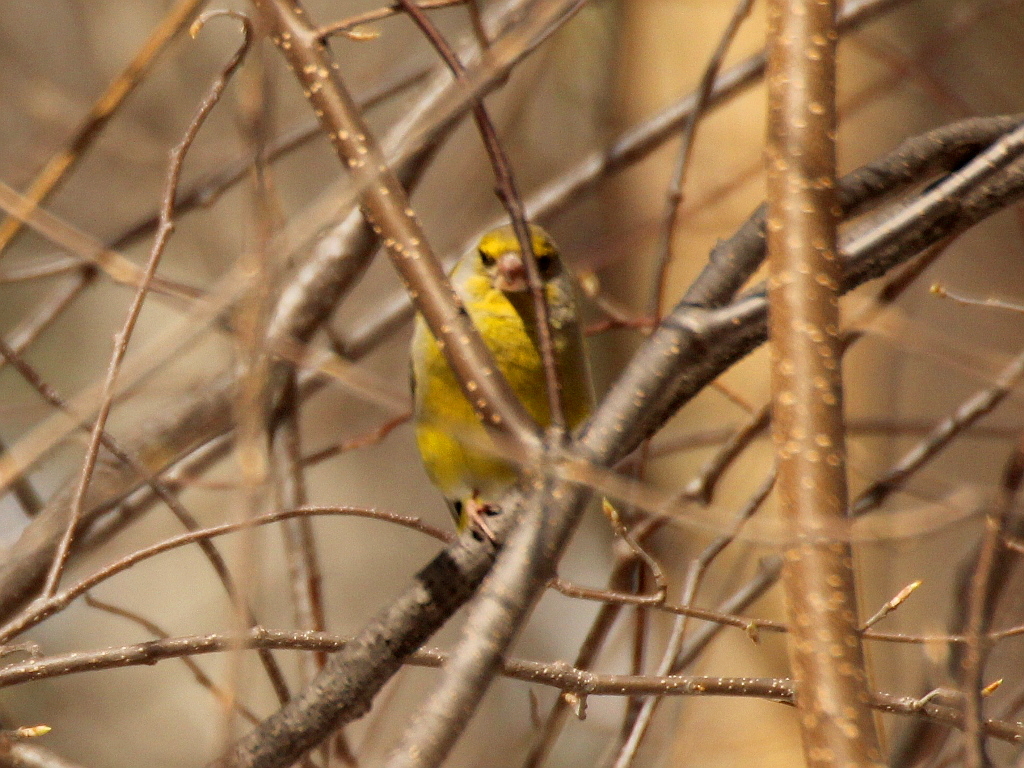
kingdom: Plantae
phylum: Tracheophyta
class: Liliopsida
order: Poales
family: Poaceae
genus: Chloris
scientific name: Chloris chloris
